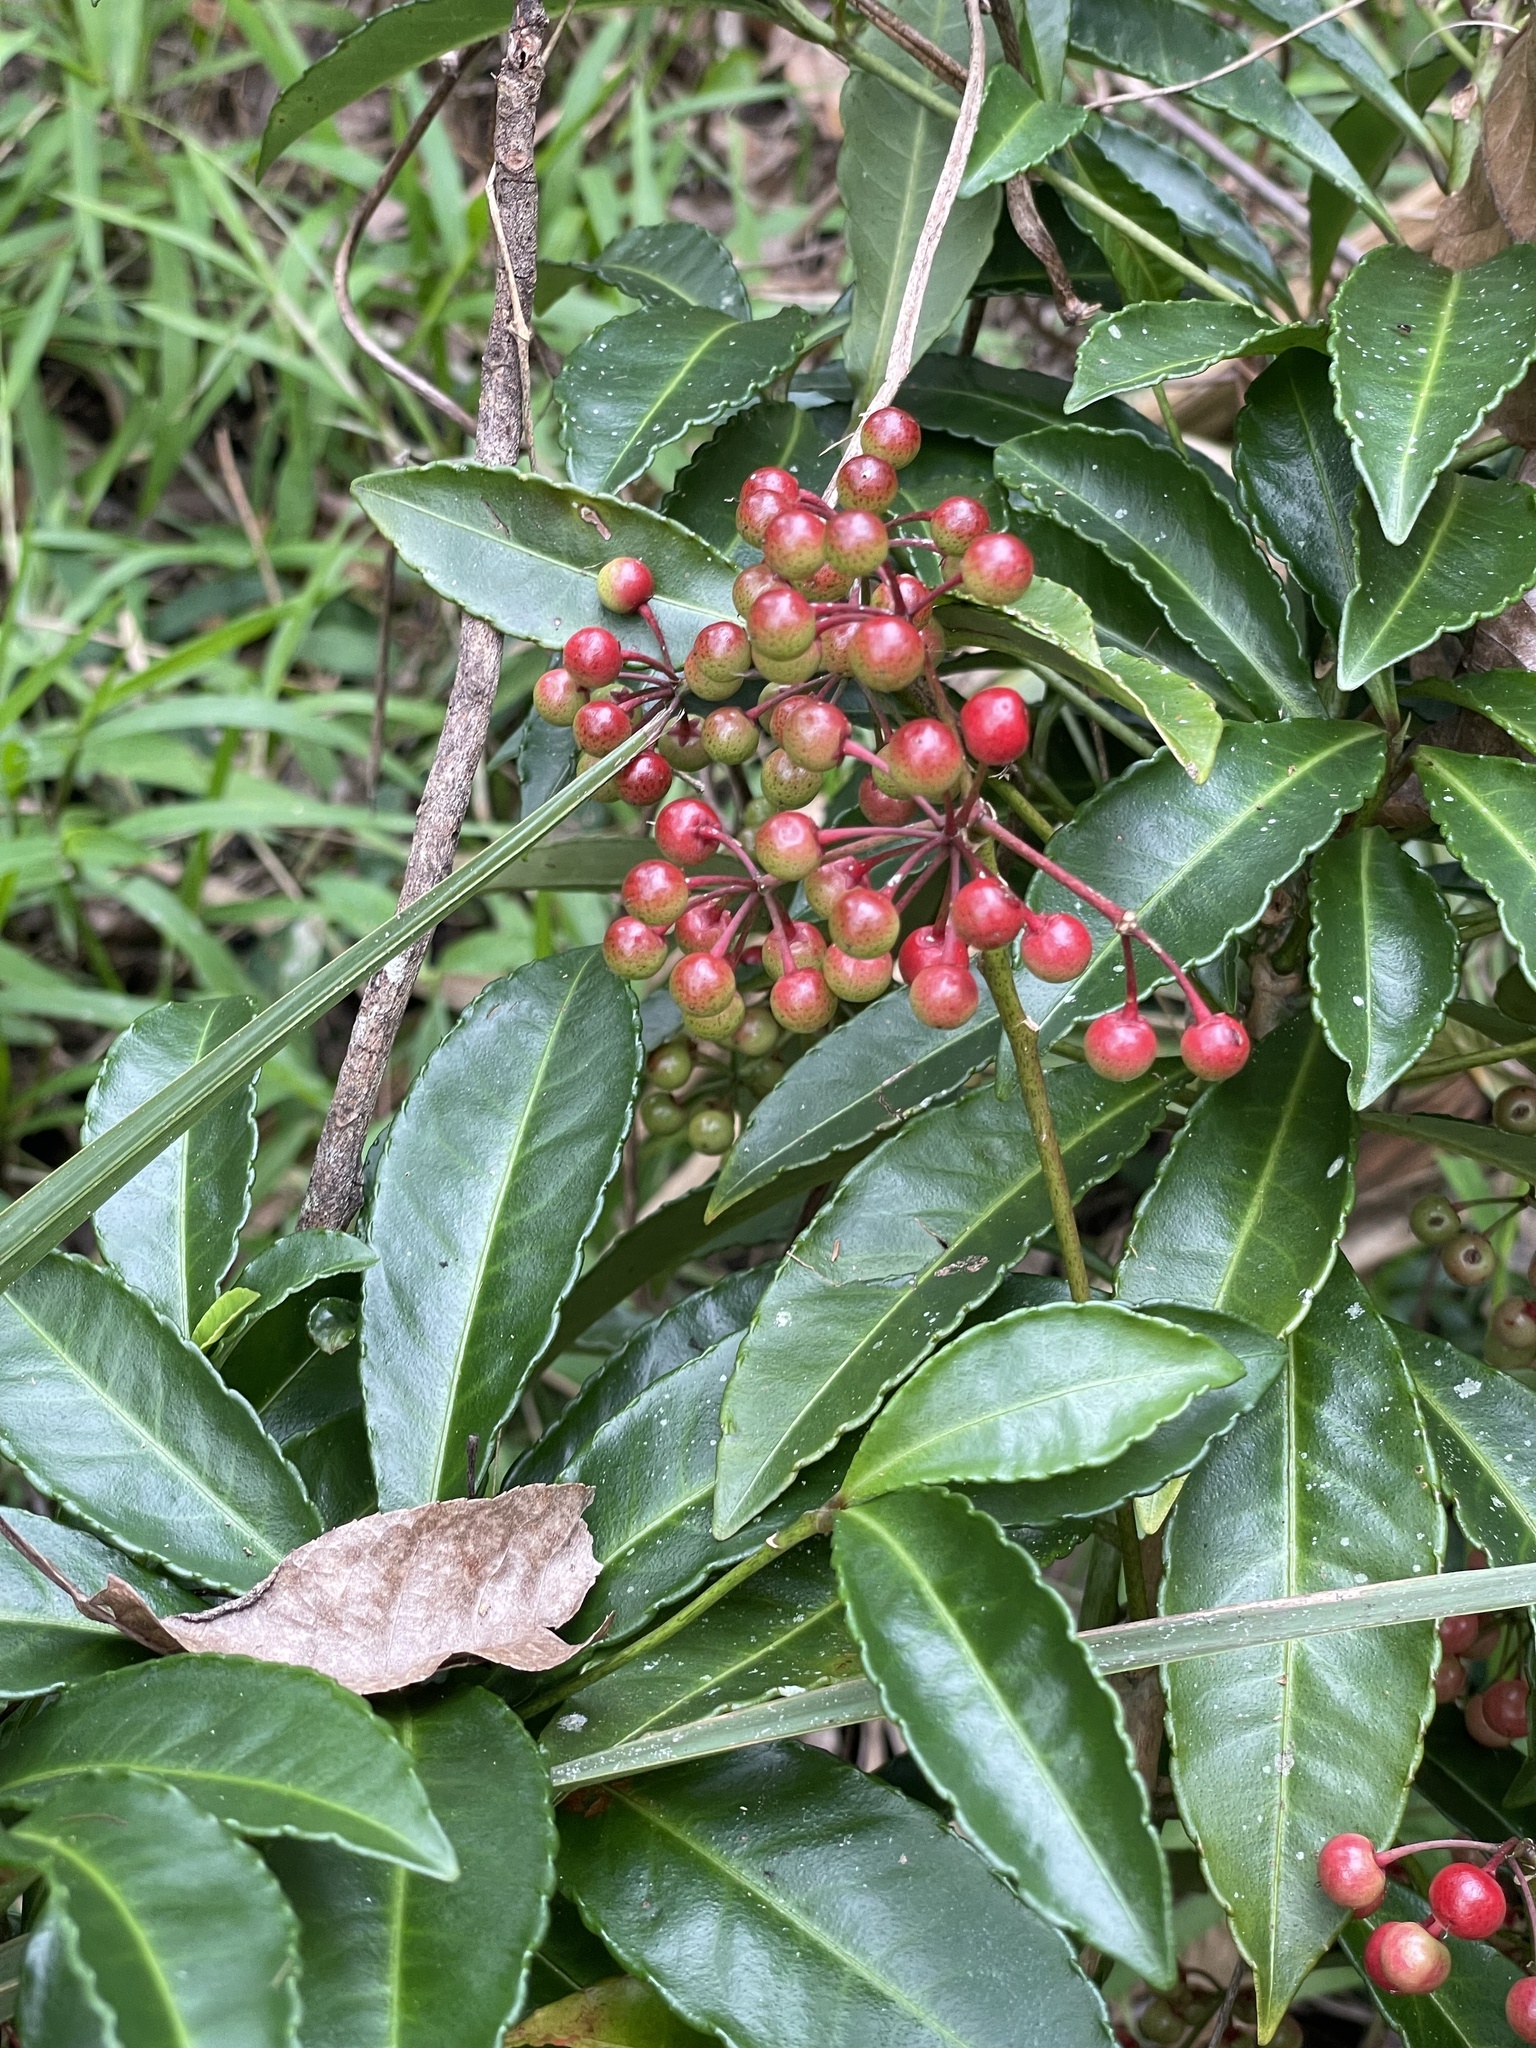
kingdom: Plantae
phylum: Tracheophyta
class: Magnoliopsida
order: Ericales
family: Primulaceae
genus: Ardisia
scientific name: Ardisia crenata
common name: Hen's eyes
